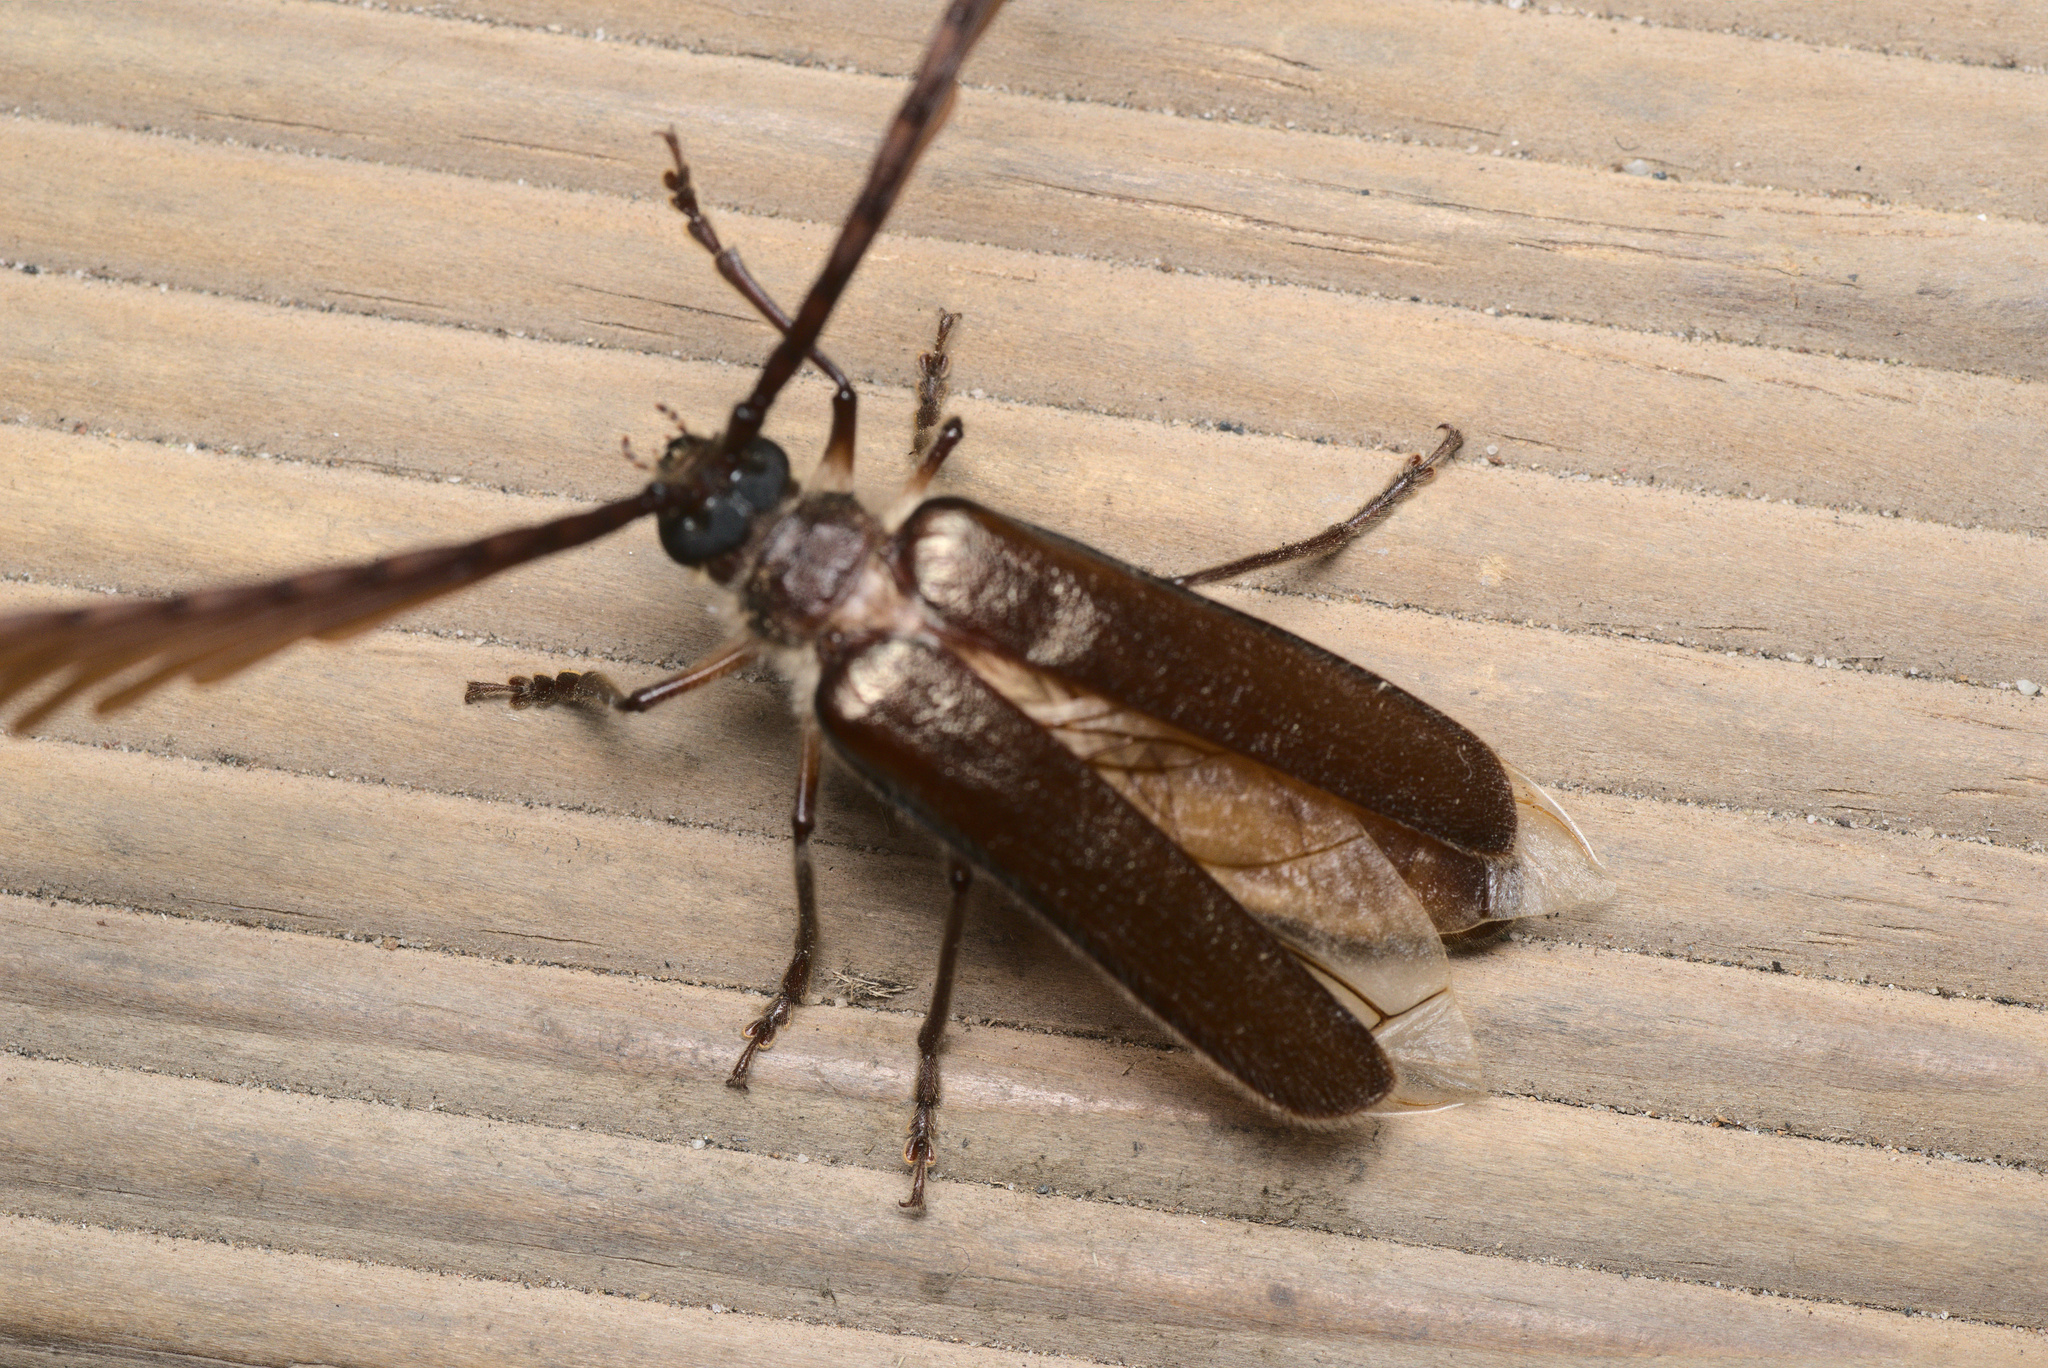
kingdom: Animalia
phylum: Arthropoda
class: Insecta
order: Coleoptera
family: Cerambycidae
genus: Enneaphyllus
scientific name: Enneaphyllus aeneipennis
